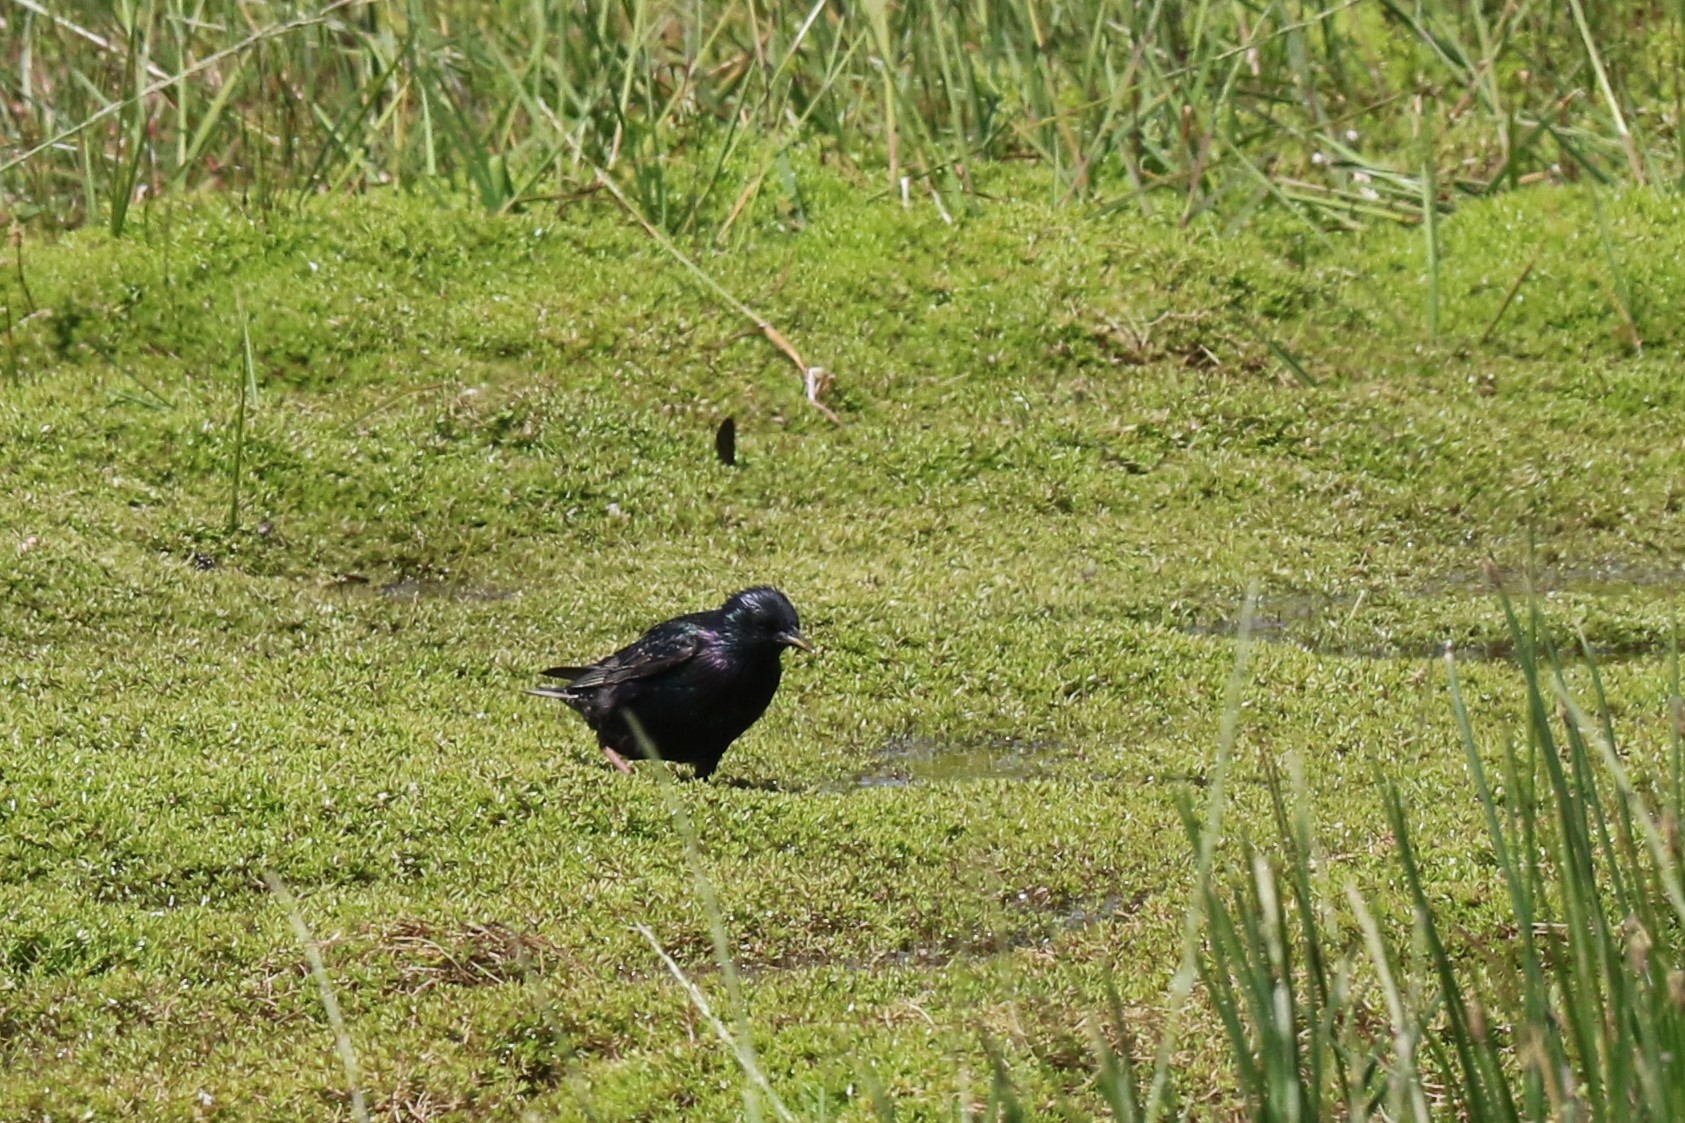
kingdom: Animalia
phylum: Chordata
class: Aves
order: Passeriformes
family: Sturnidae
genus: Sturnus
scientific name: Sturnus vulgaris
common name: Common starling
